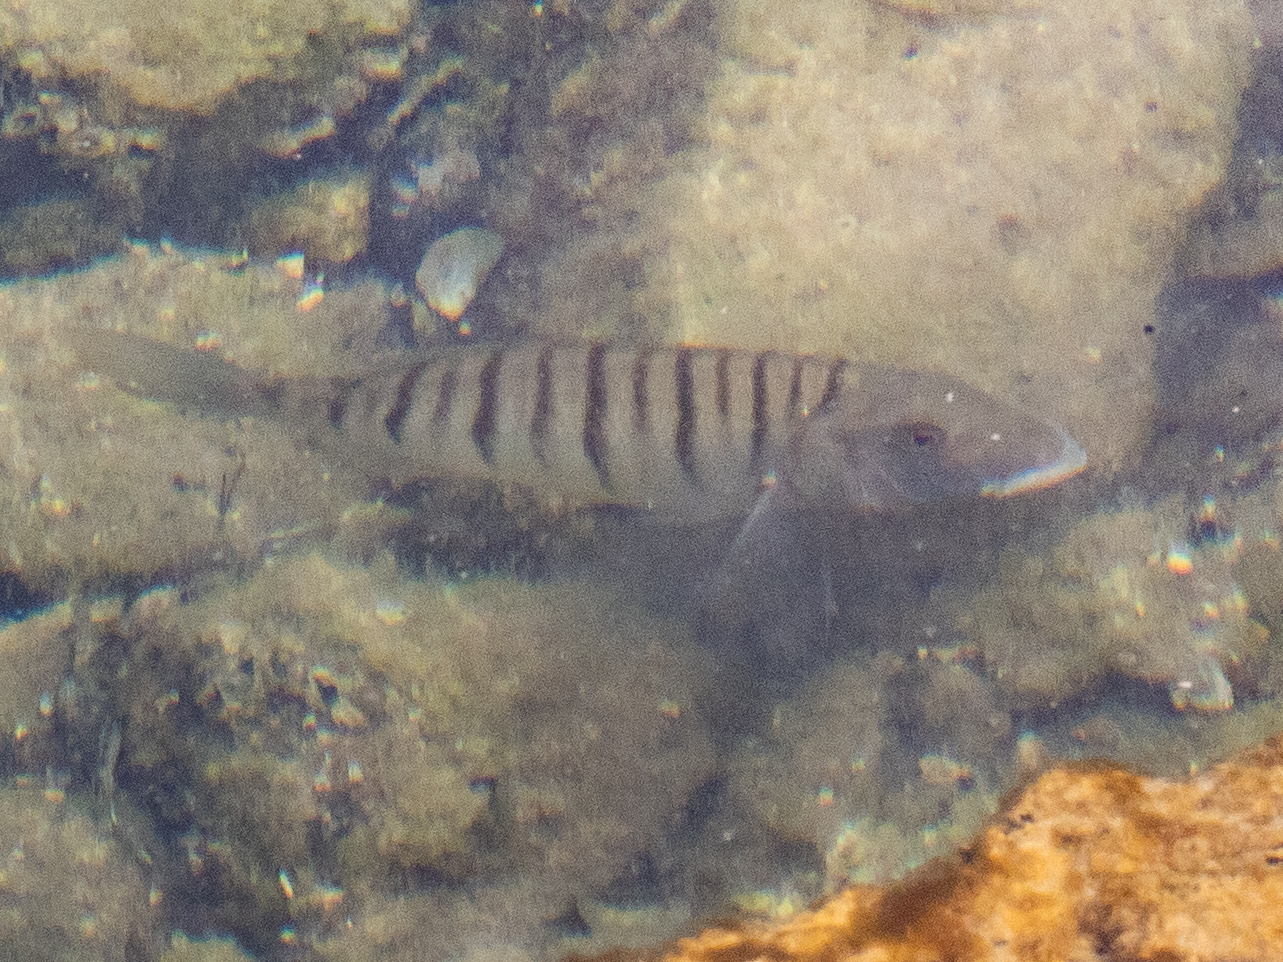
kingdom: Animalia
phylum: Chordata
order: Perciformes
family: Sparidae
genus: Lithognathus
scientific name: Lithognathus mormyrus
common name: Sand steenbras
